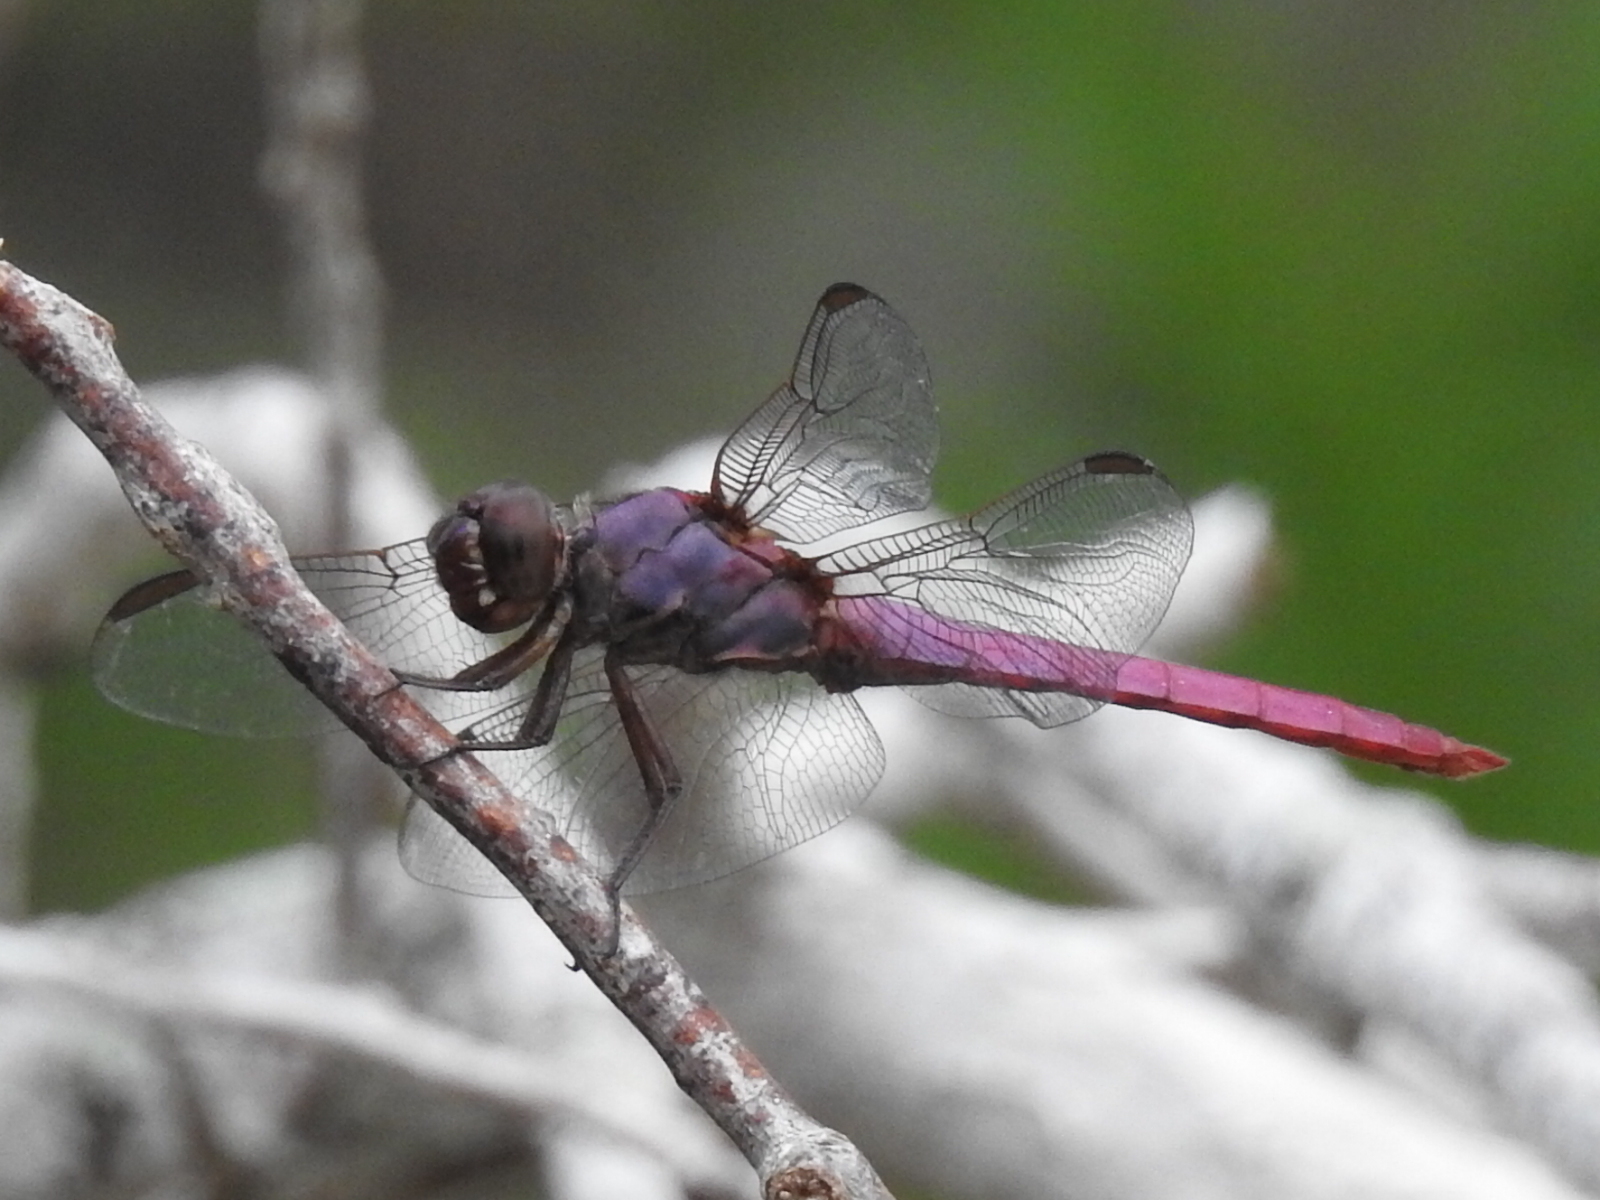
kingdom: Animalia
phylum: Arthropoda
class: Insecta
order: Odonata
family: Libellulidae
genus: Orthemis
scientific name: Orthemis ferruginea
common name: Roseate skimmer
